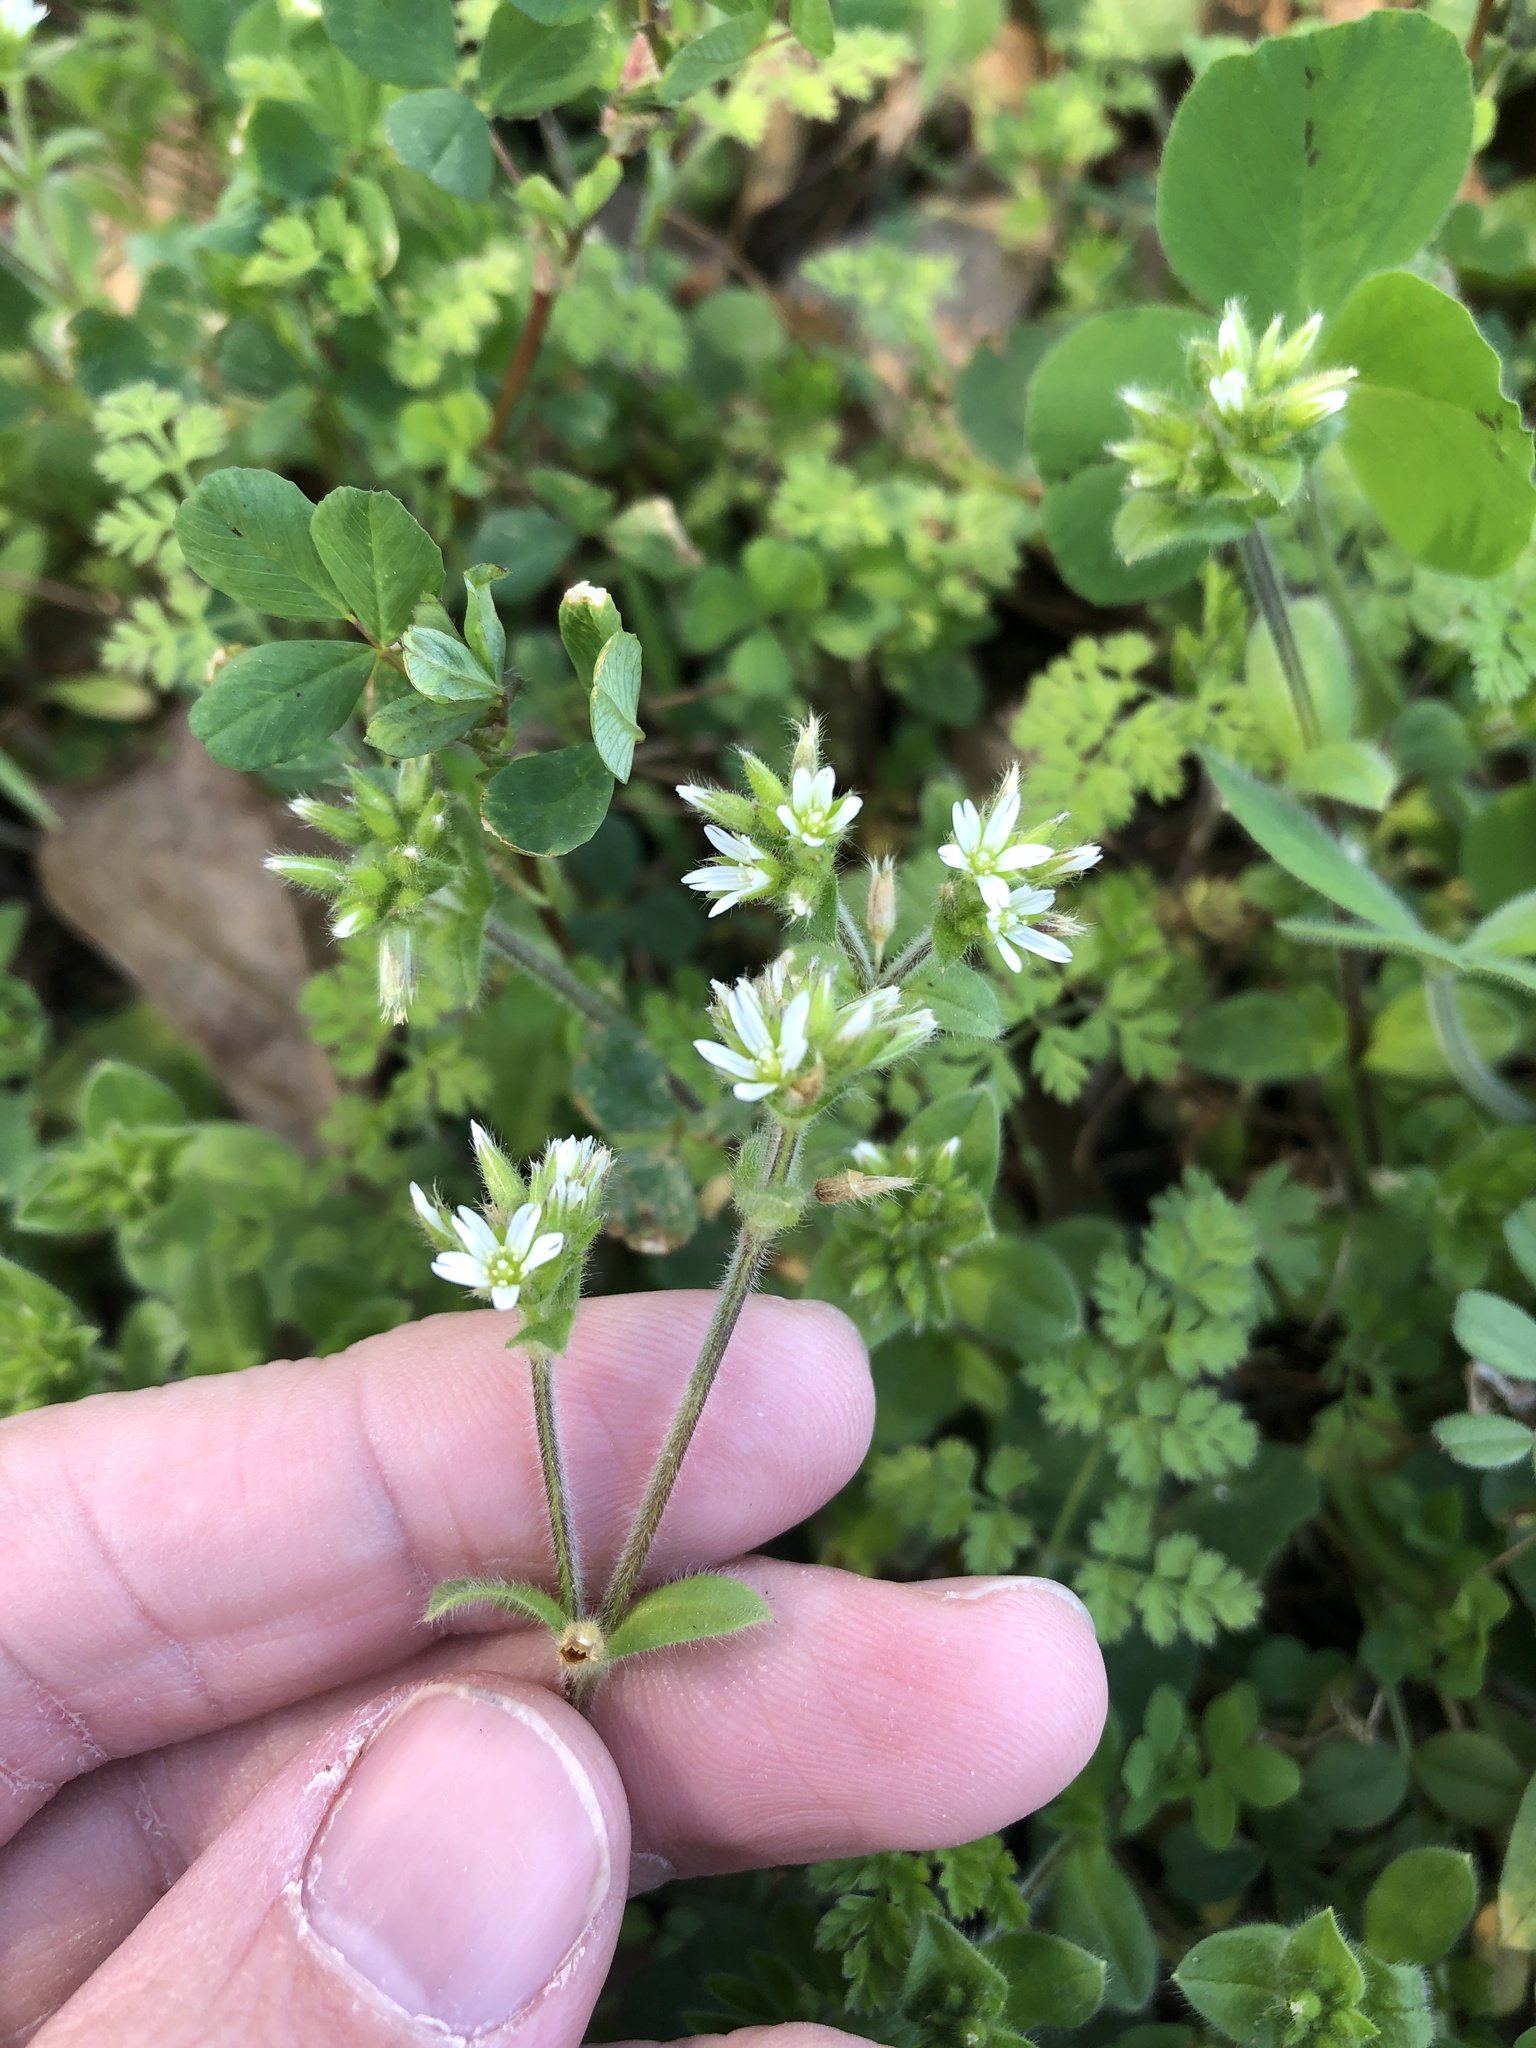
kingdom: Plantae
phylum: Tracheophyta
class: Magnoliopsida
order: Caryophyllales
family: Caryophyllaceae
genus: Cerastium
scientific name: Cerastium glomeratum
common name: Sticky chickweed
